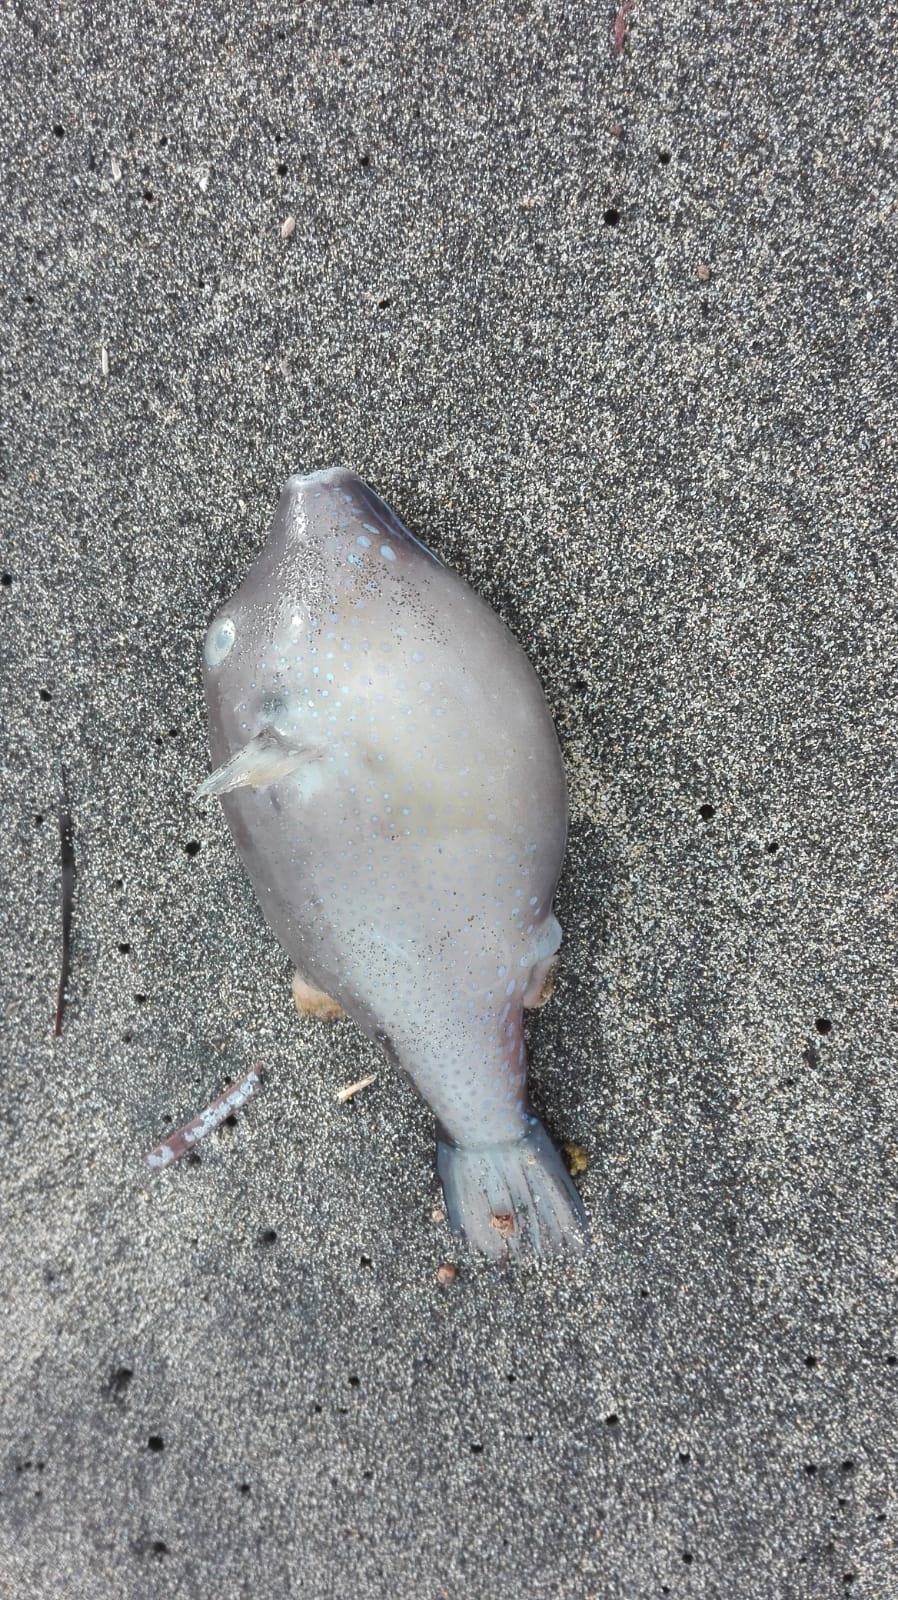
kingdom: Animalia
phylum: Chordata
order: Tetraodontiformes
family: Tetraodontidae
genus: Canthigaster
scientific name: Canthigaster capistrata
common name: Macaronesian sharpnose-puffer
